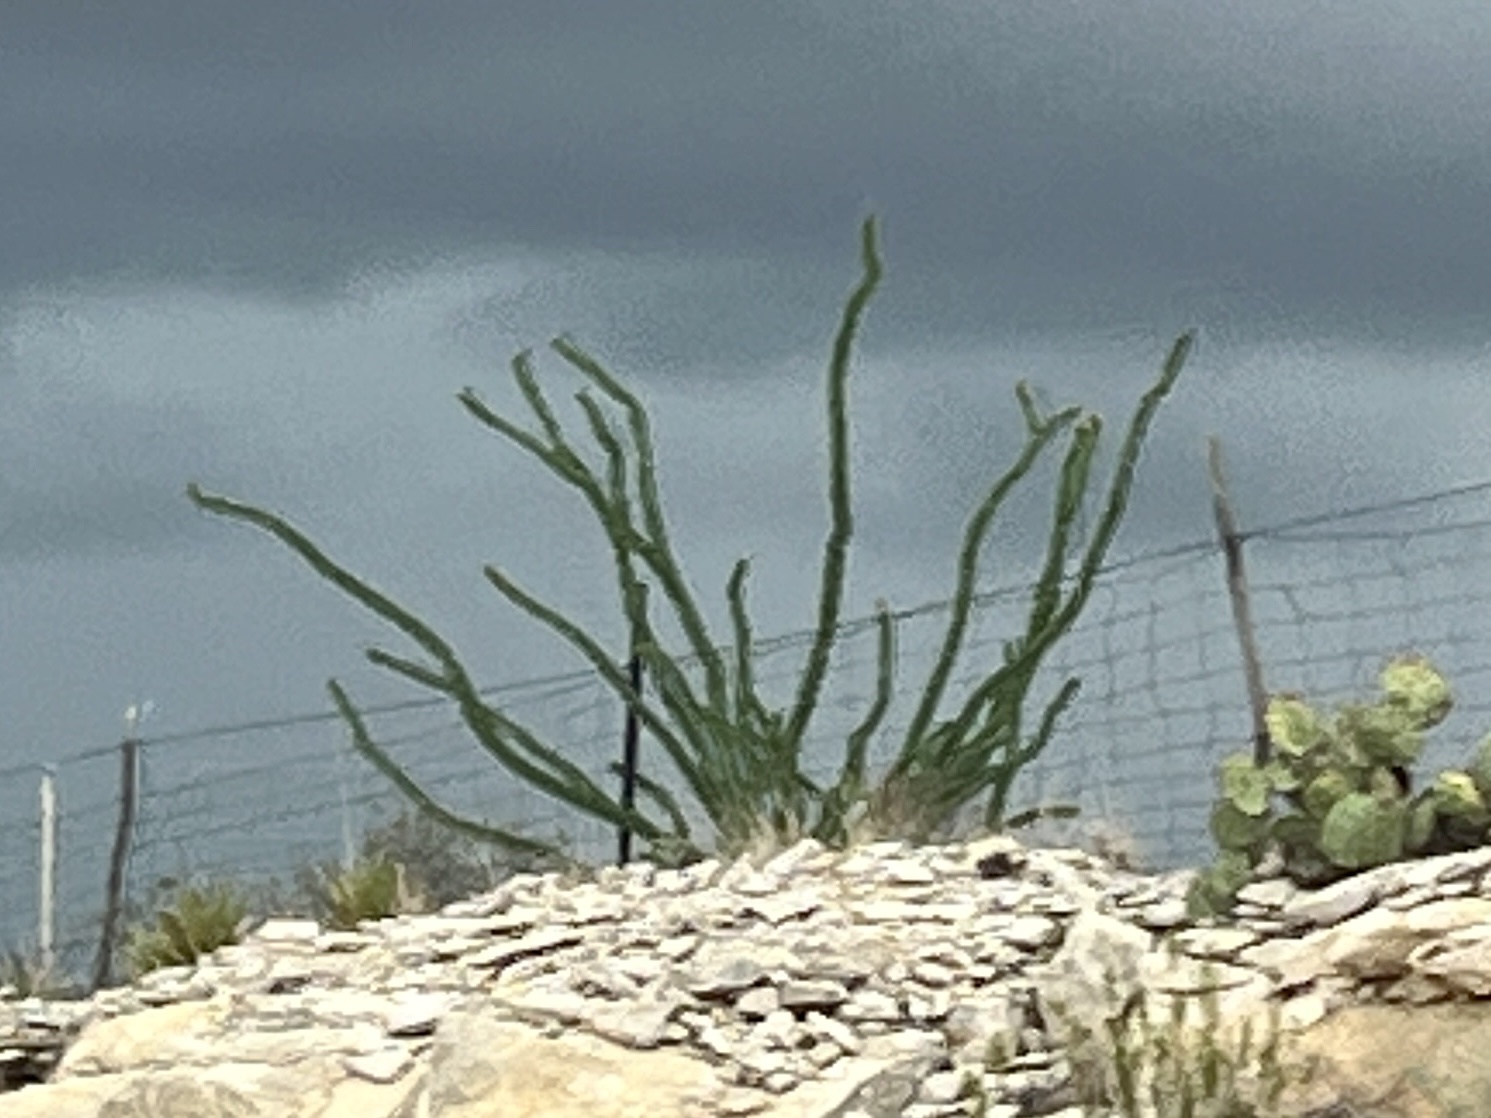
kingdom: Plantae
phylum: Tracheophyta
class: Magnoliopsida
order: Ericales
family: Fouquieriaceae
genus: Fouquieria
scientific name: Fouquieria splendens
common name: Vine-cactus
